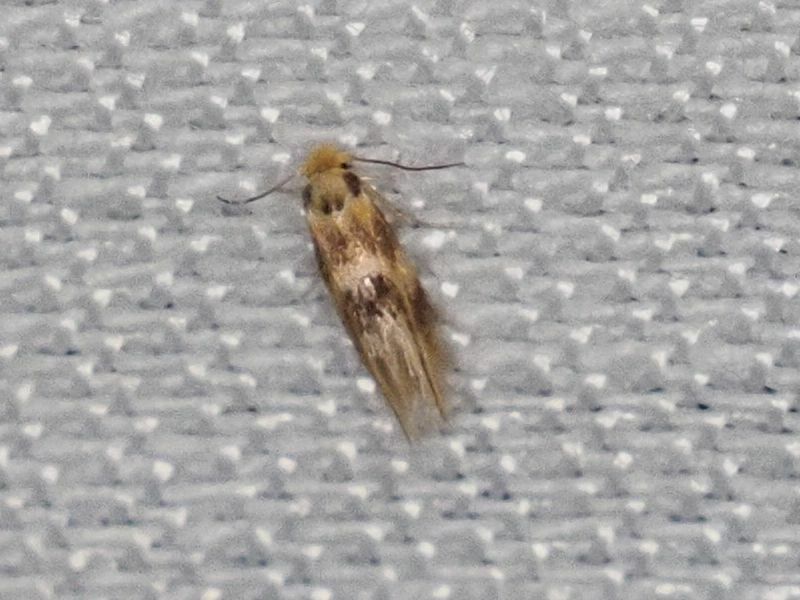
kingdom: Animalia
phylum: Arthropoda
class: Insecta
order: Lepidoptera
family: Bucculatricidae
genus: Bucculatrix
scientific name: Bucculatrix thoracella
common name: Lime bent-wing
